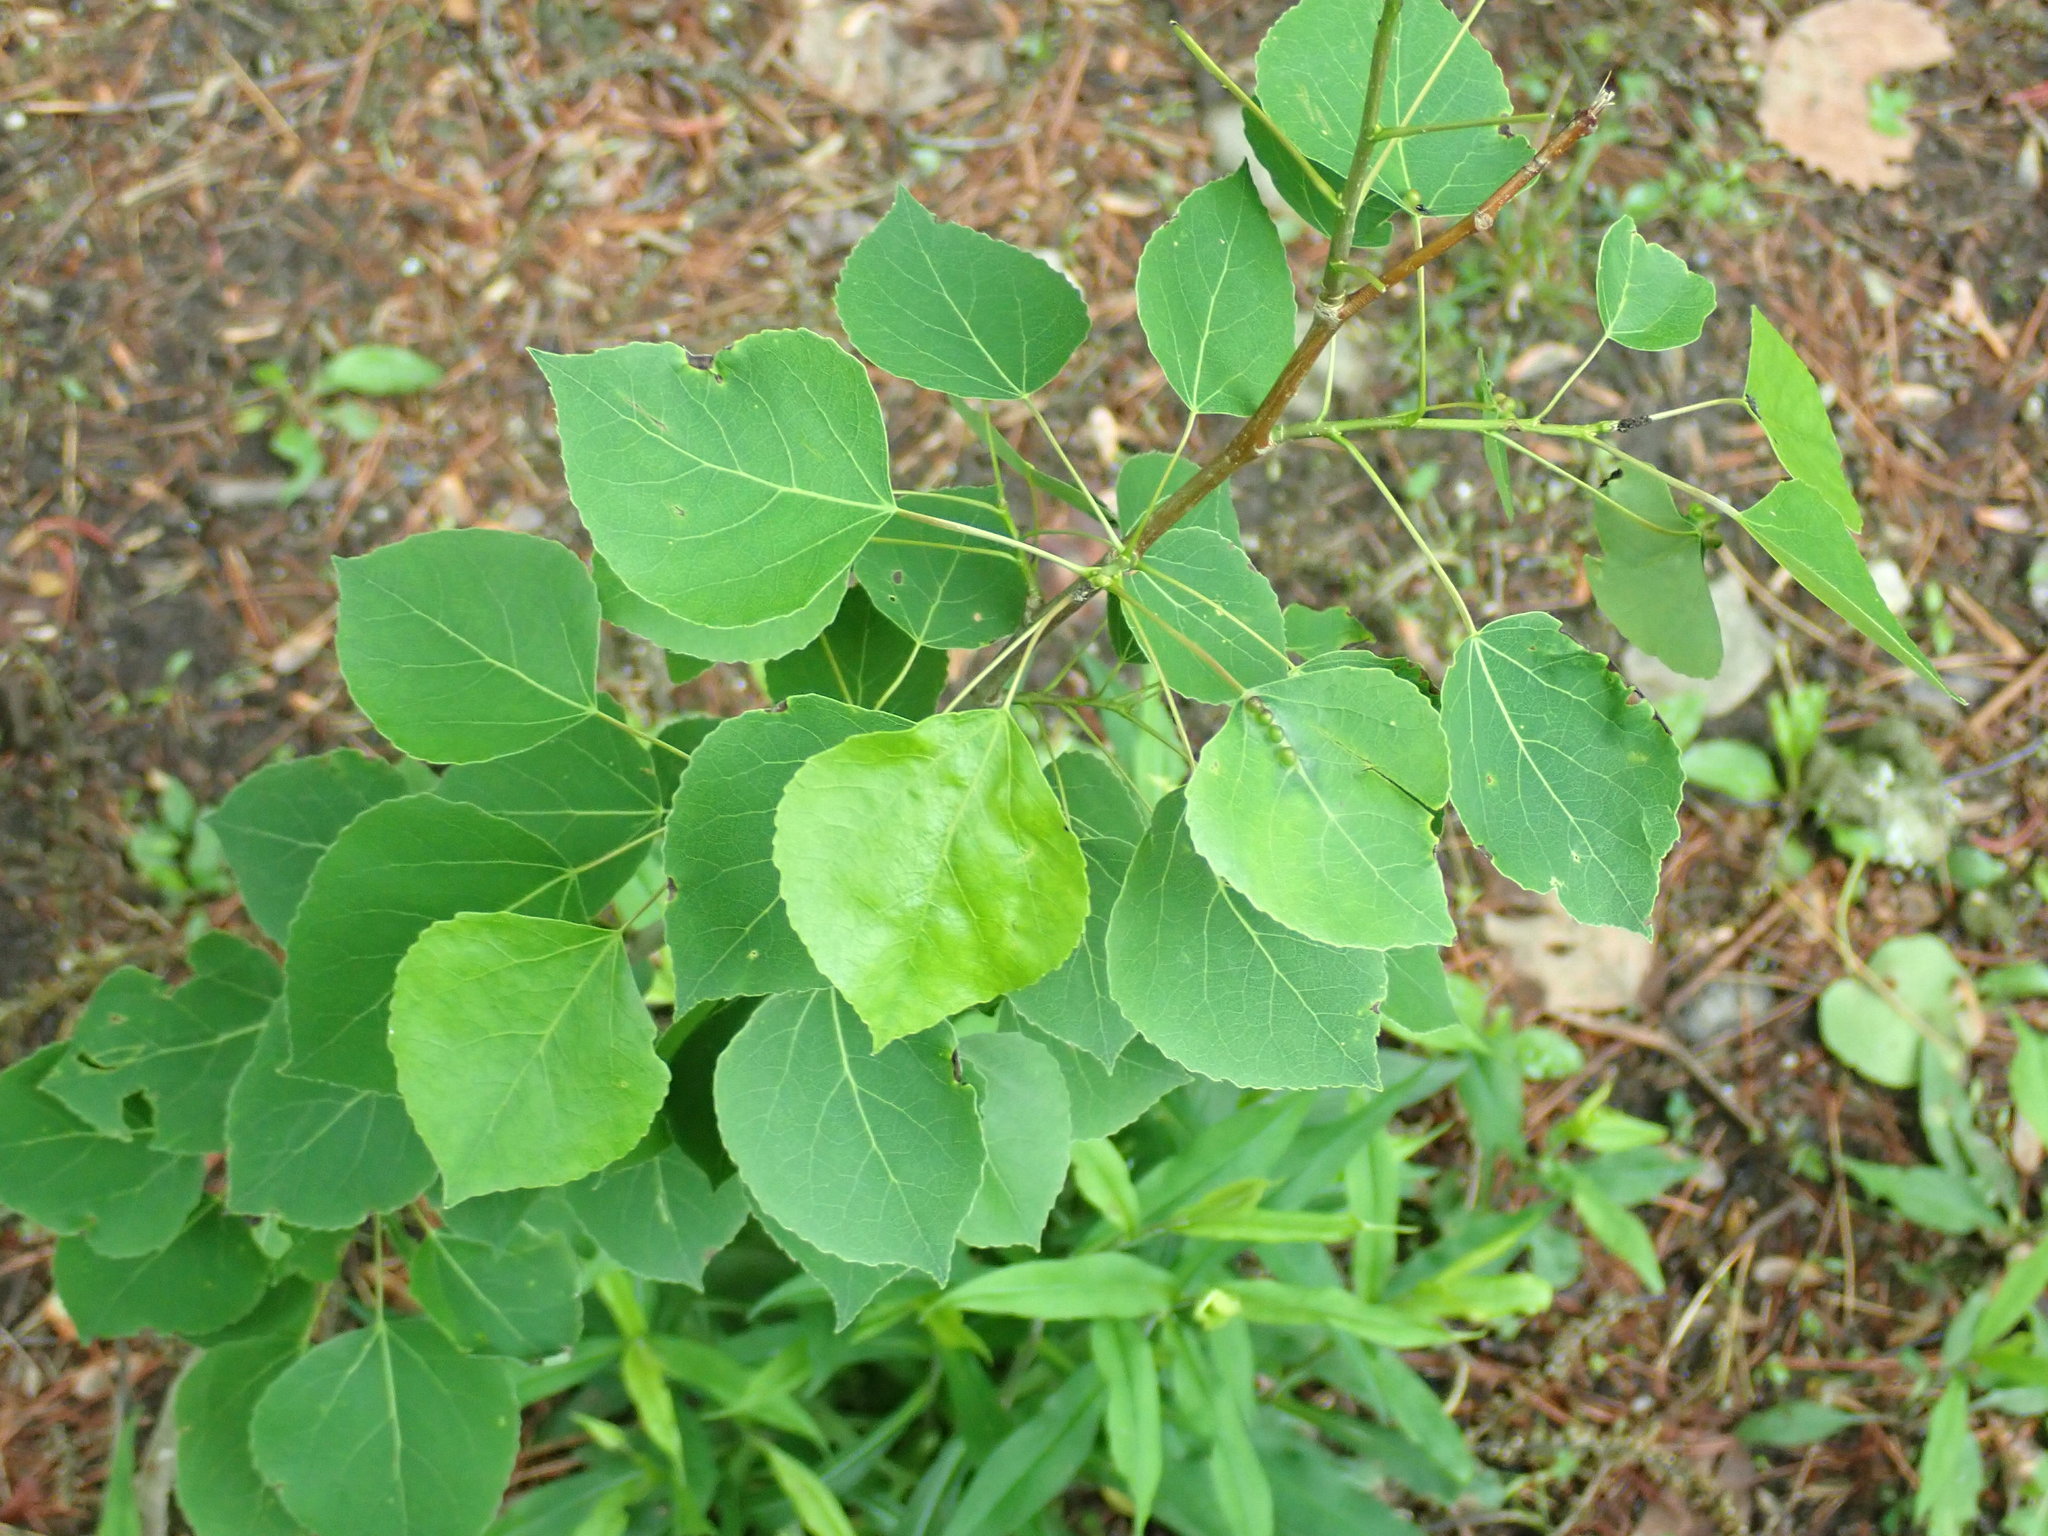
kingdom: Plantae
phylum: Tracheophyta
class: Magnoliopsida
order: Malpighiales
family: Salicaceae
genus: Populus
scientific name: Populus tremuloides
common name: Quaking aspen
